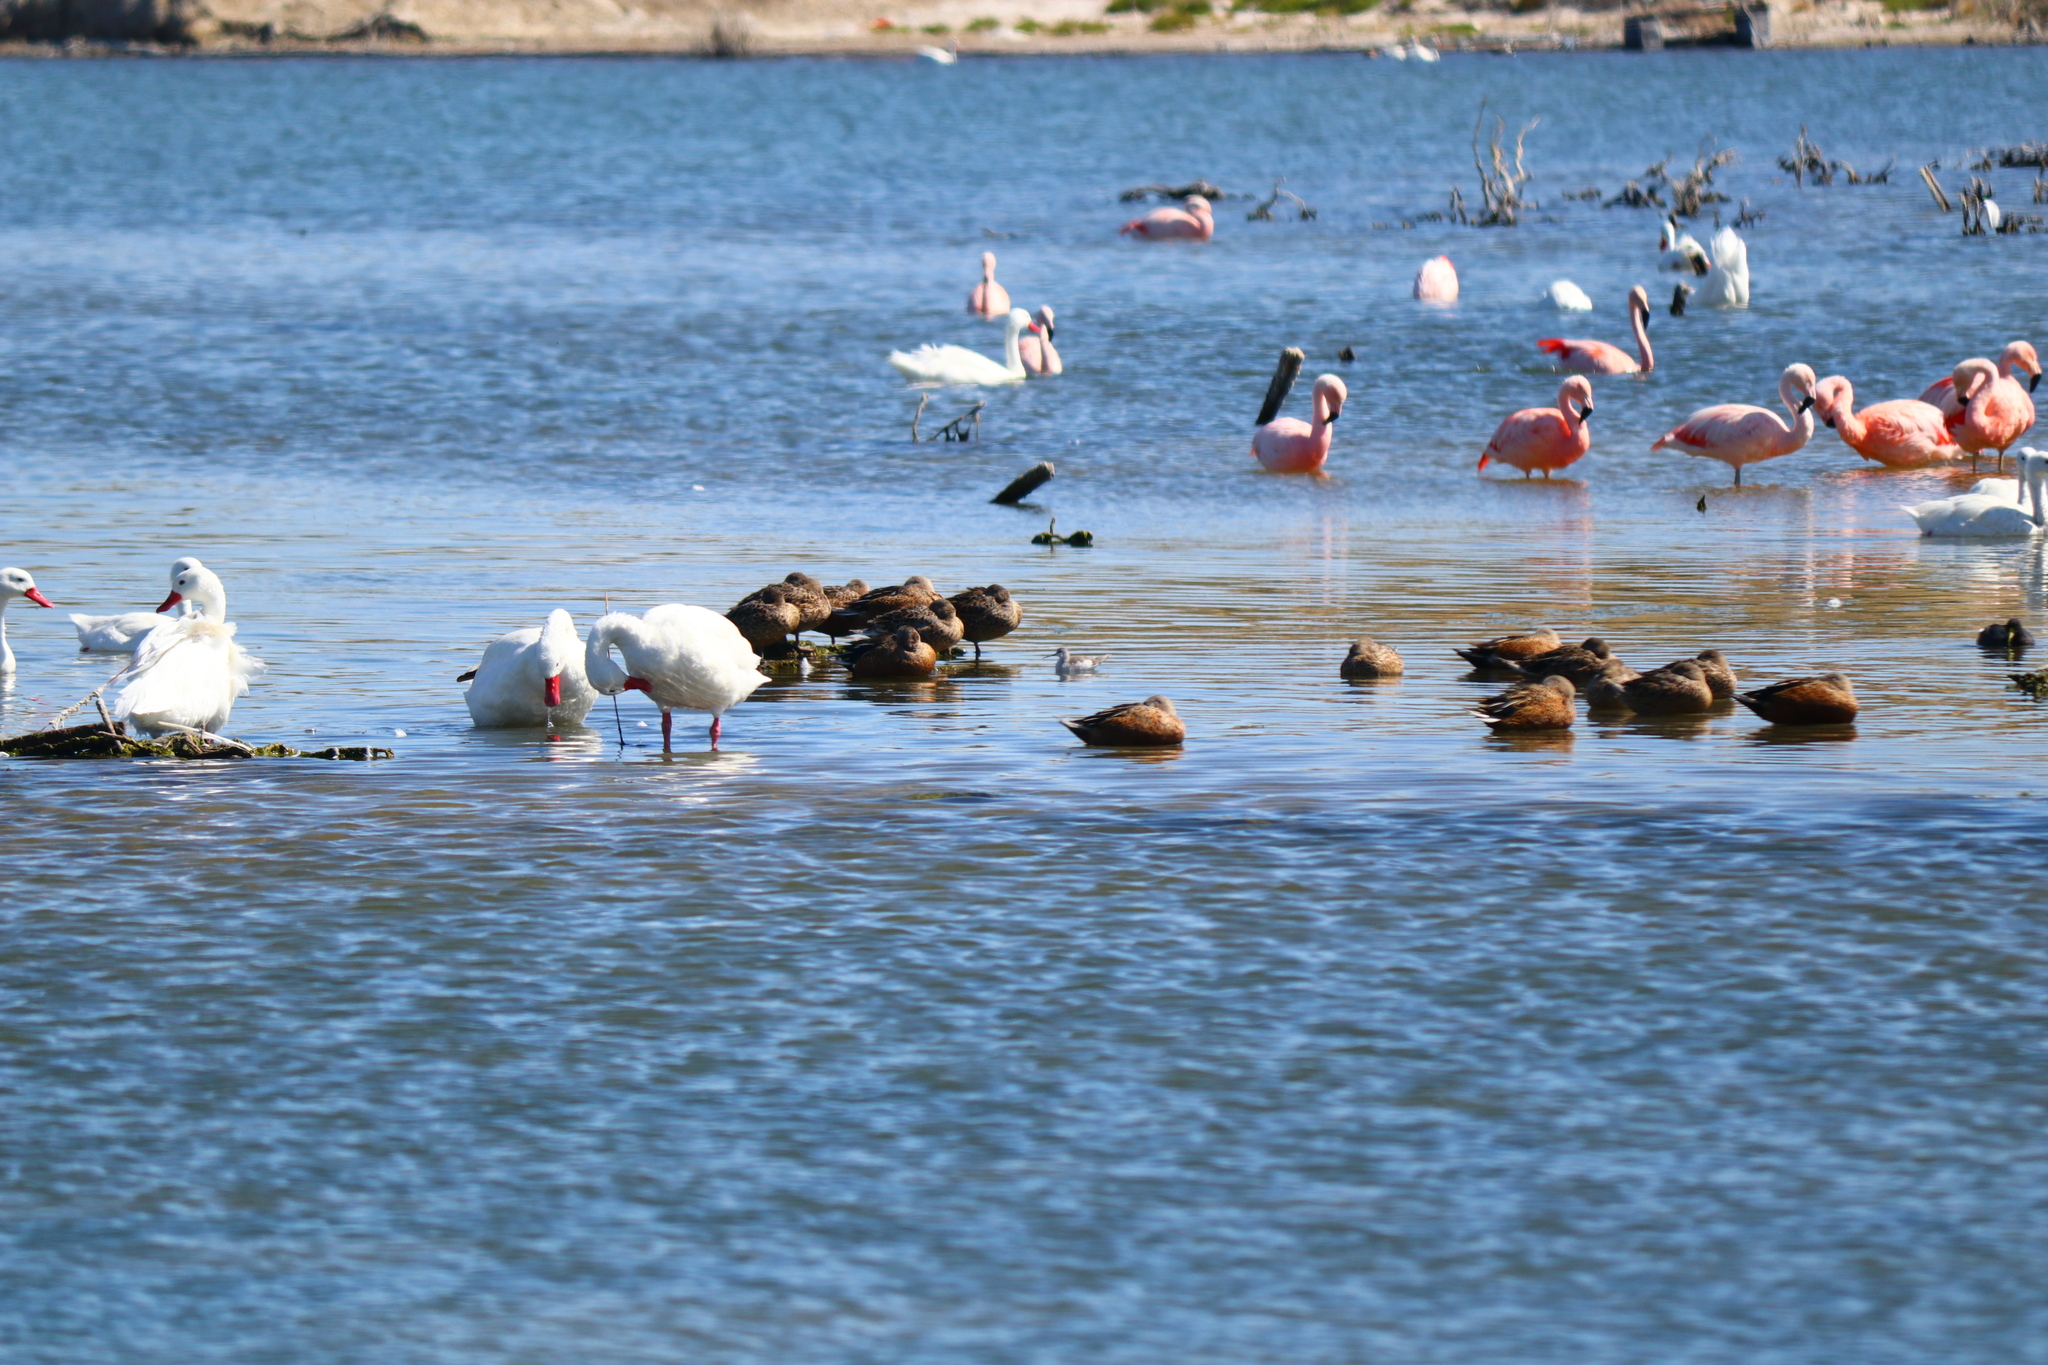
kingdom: Animalia
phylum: Chordata
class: Aves
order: Charadriiformes
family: Scolopacidae
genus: Phalaropus
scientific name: Phalaropus tricolor
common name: Wilson's phalarope
